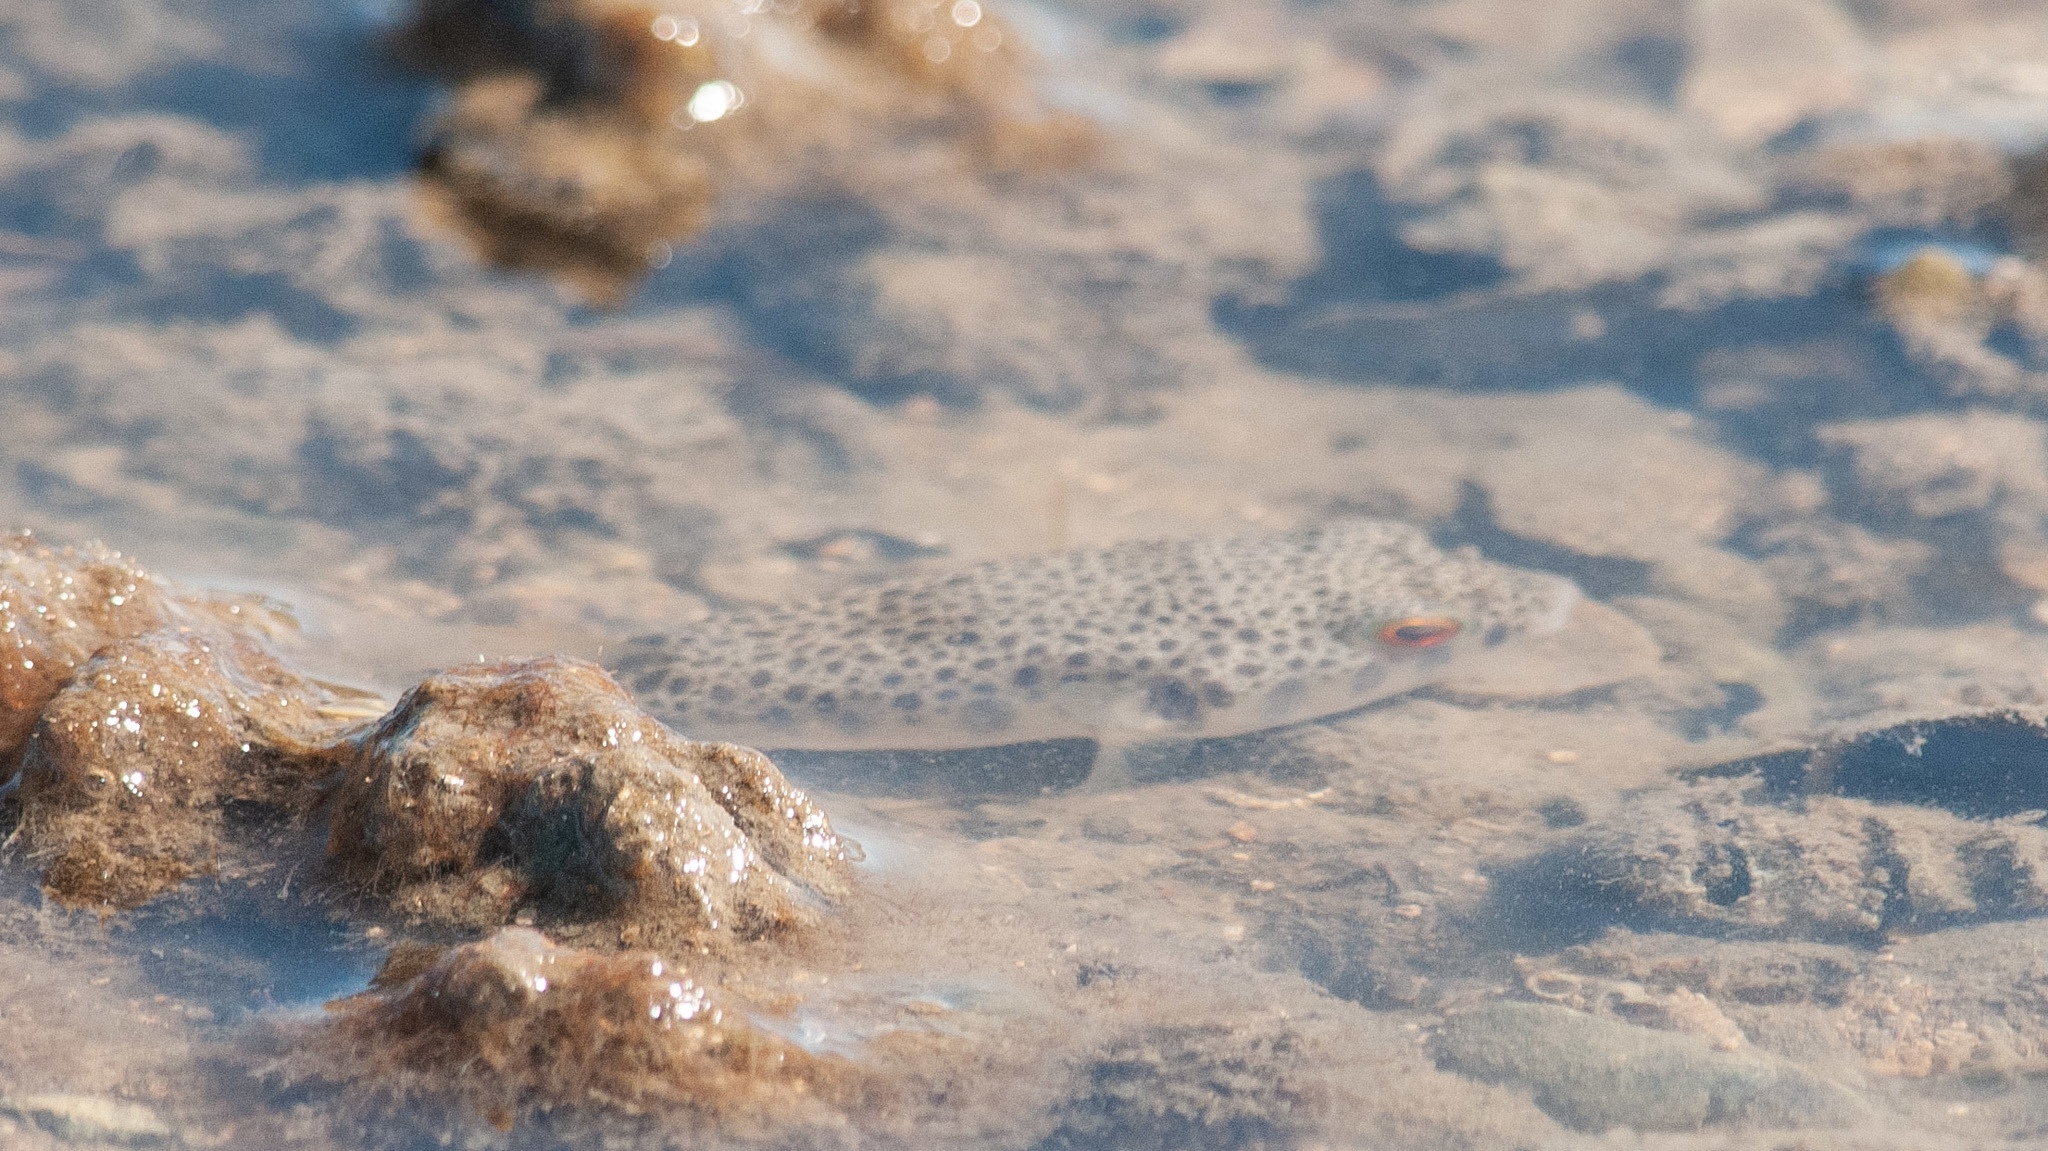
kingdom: Animalia
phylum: Chordata
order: Tetraodontiformes
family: Tetraodontidae
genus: Tetractenos
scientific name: Tetractenos hamiltoni
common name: Common toadfish
